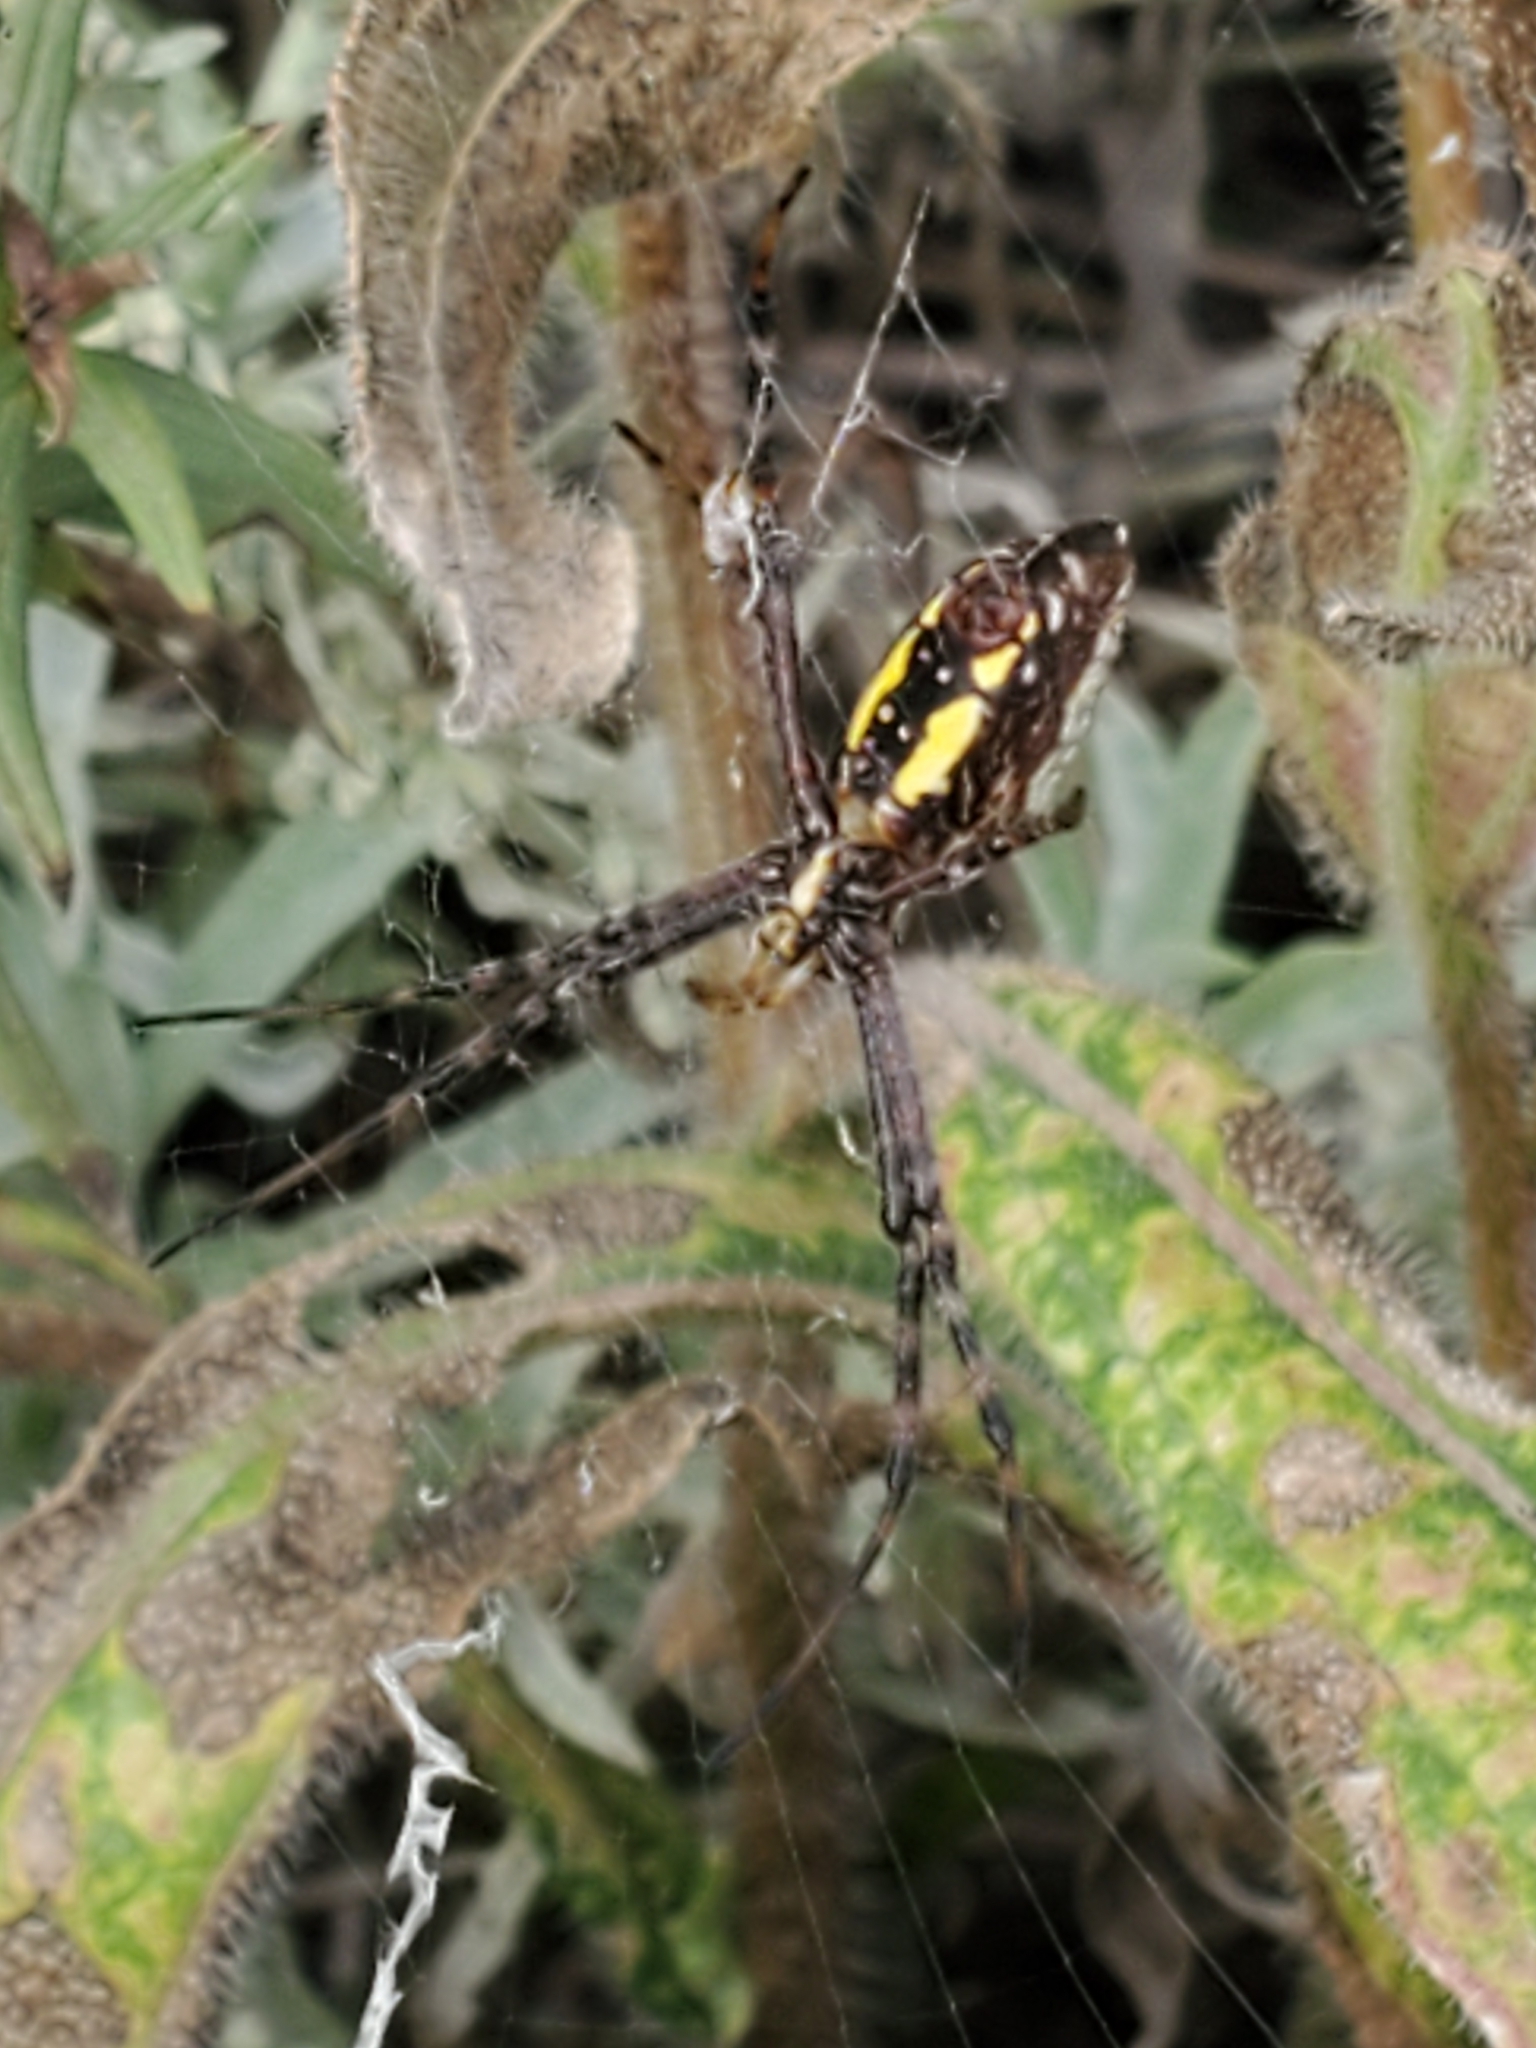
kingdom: Animalia
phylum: Arthropoda
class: Arachnida
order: Araneae
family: Araneidae
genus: Argiope
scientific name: Argiope trifasciata
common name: Banded garden spider
